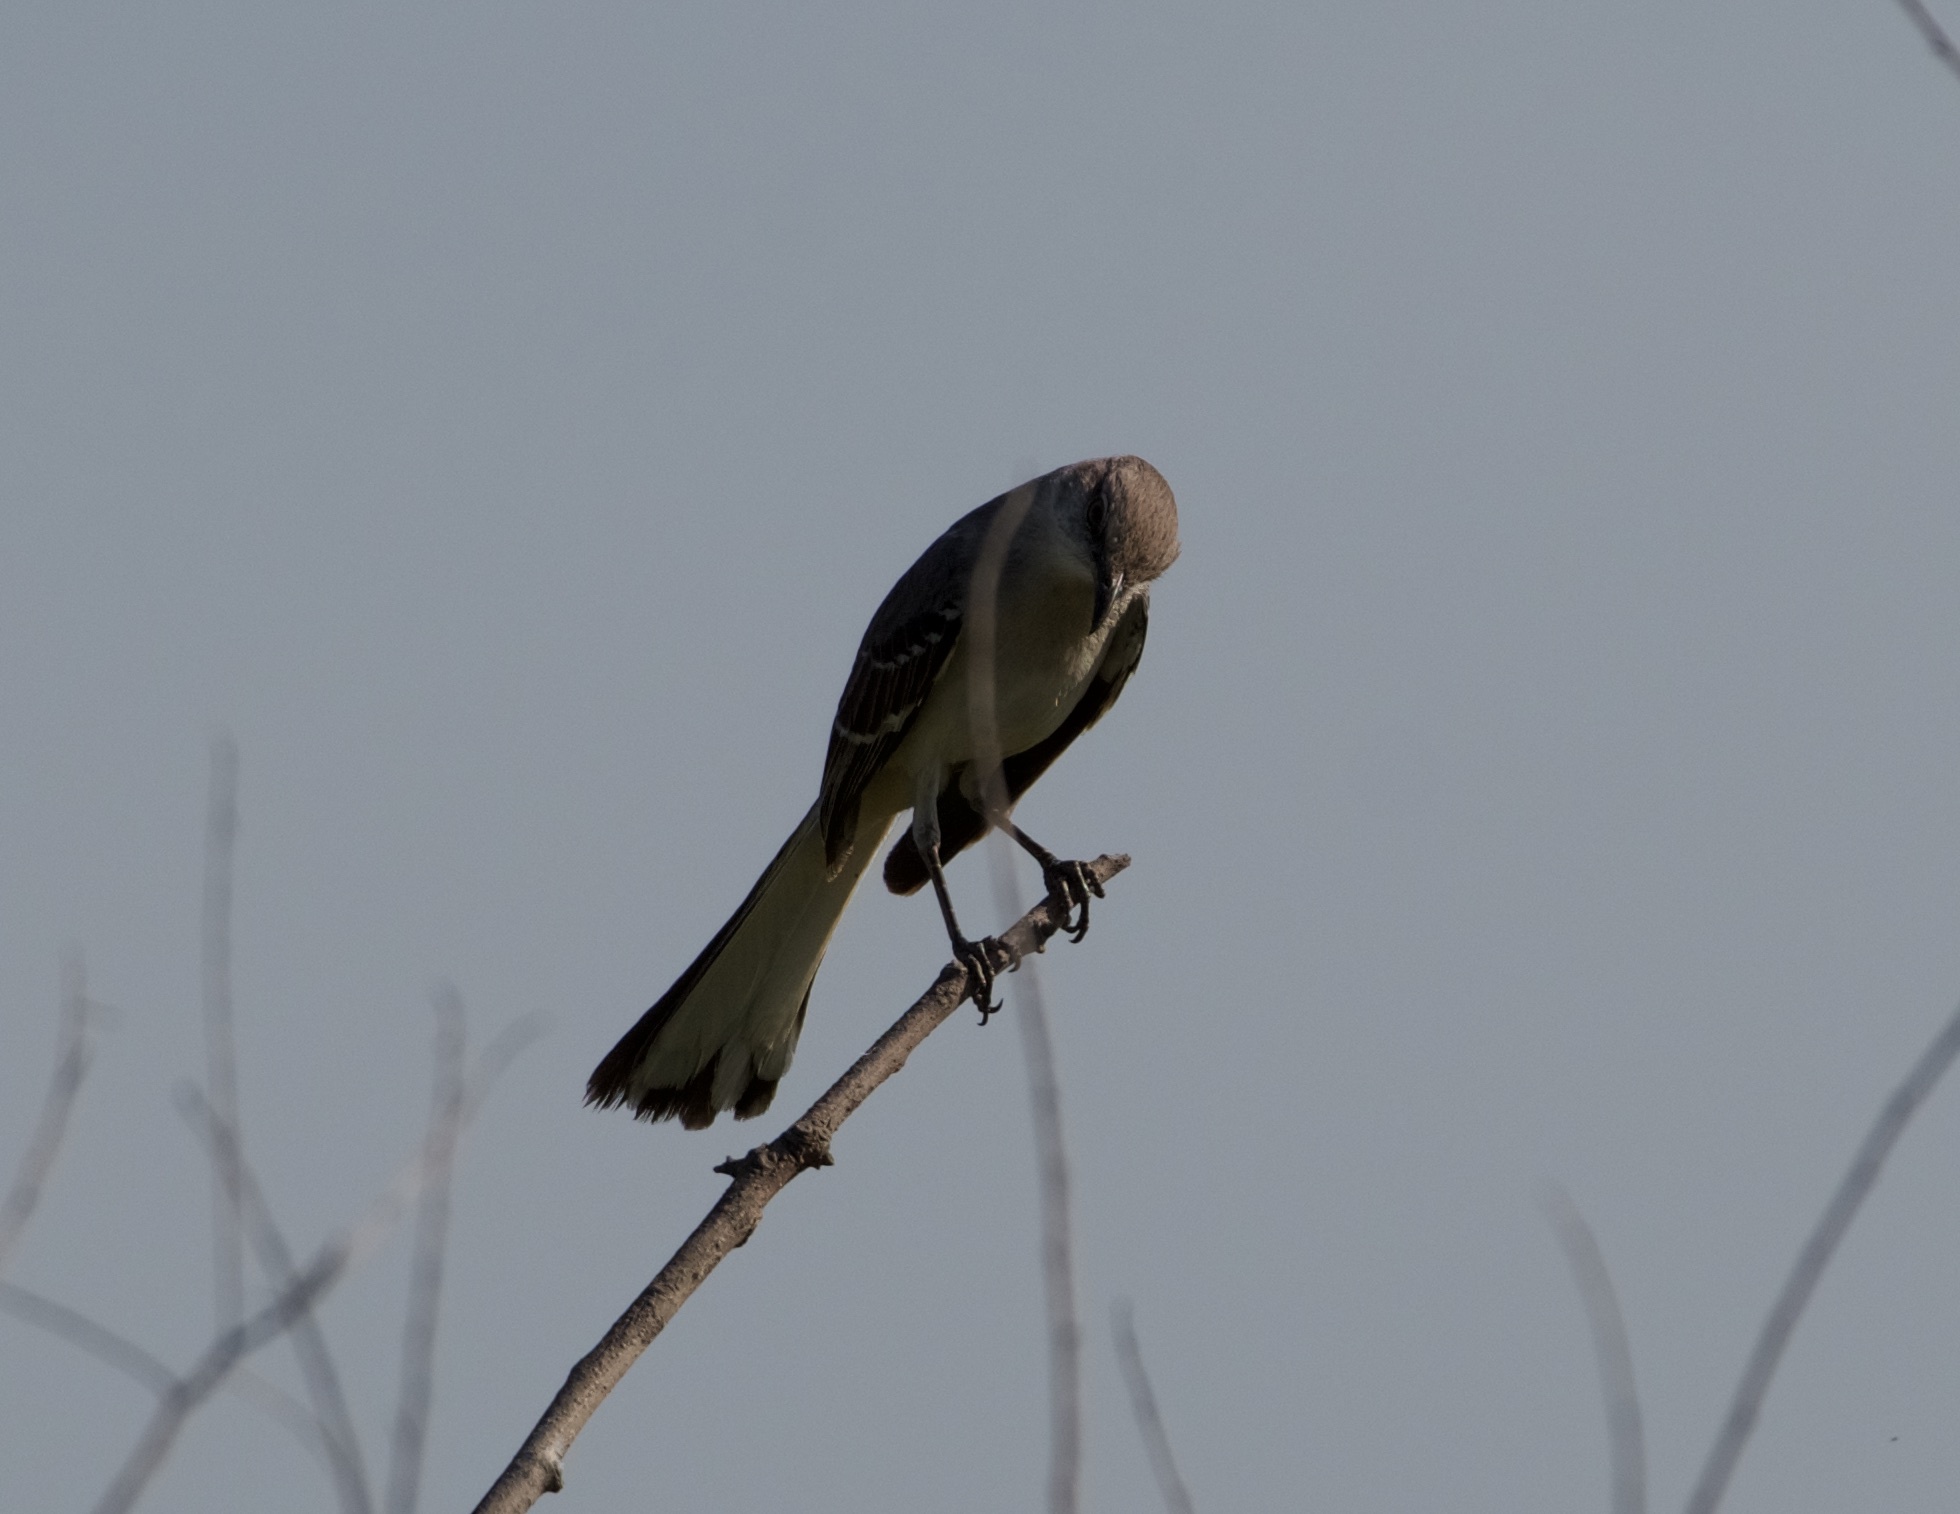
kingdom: Animalia
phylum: Chordata
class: Aves
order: Passeriformes
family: Mimidae
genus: Mimus
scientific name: Mimus polyglottos
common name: Northern mockingbird
